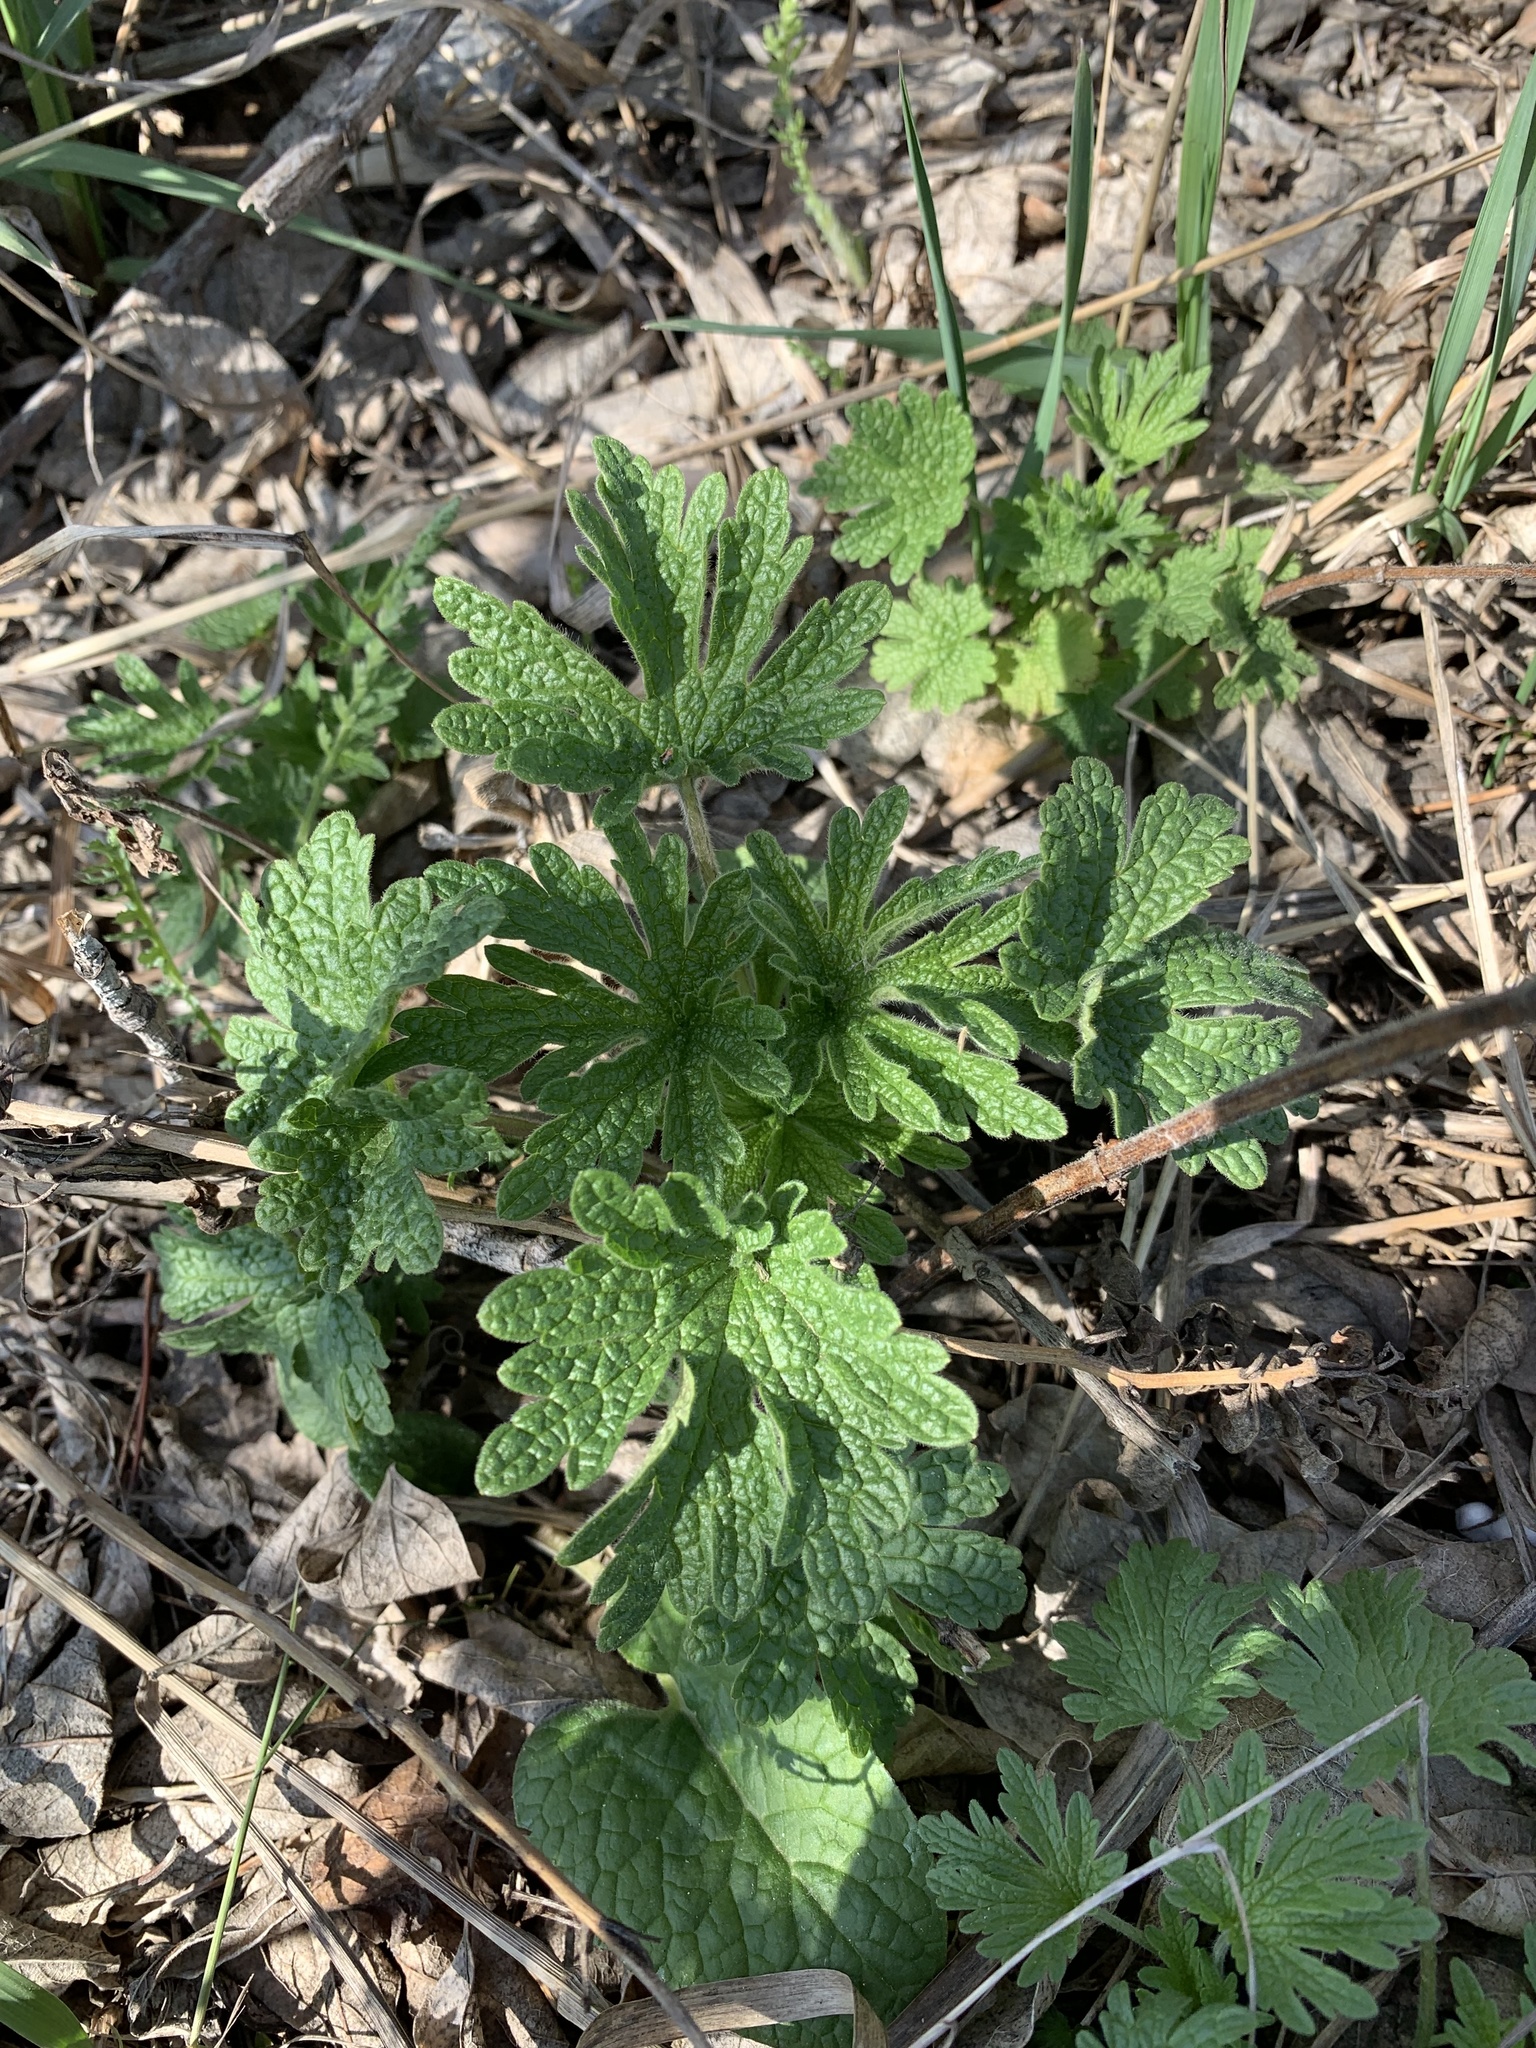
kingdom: Plantae
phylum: Tracheophyta
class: Magnoliopsida
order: Lamiales
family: Lamiaceae
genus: Leonurus
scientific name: Leonurus quinquelobatus
